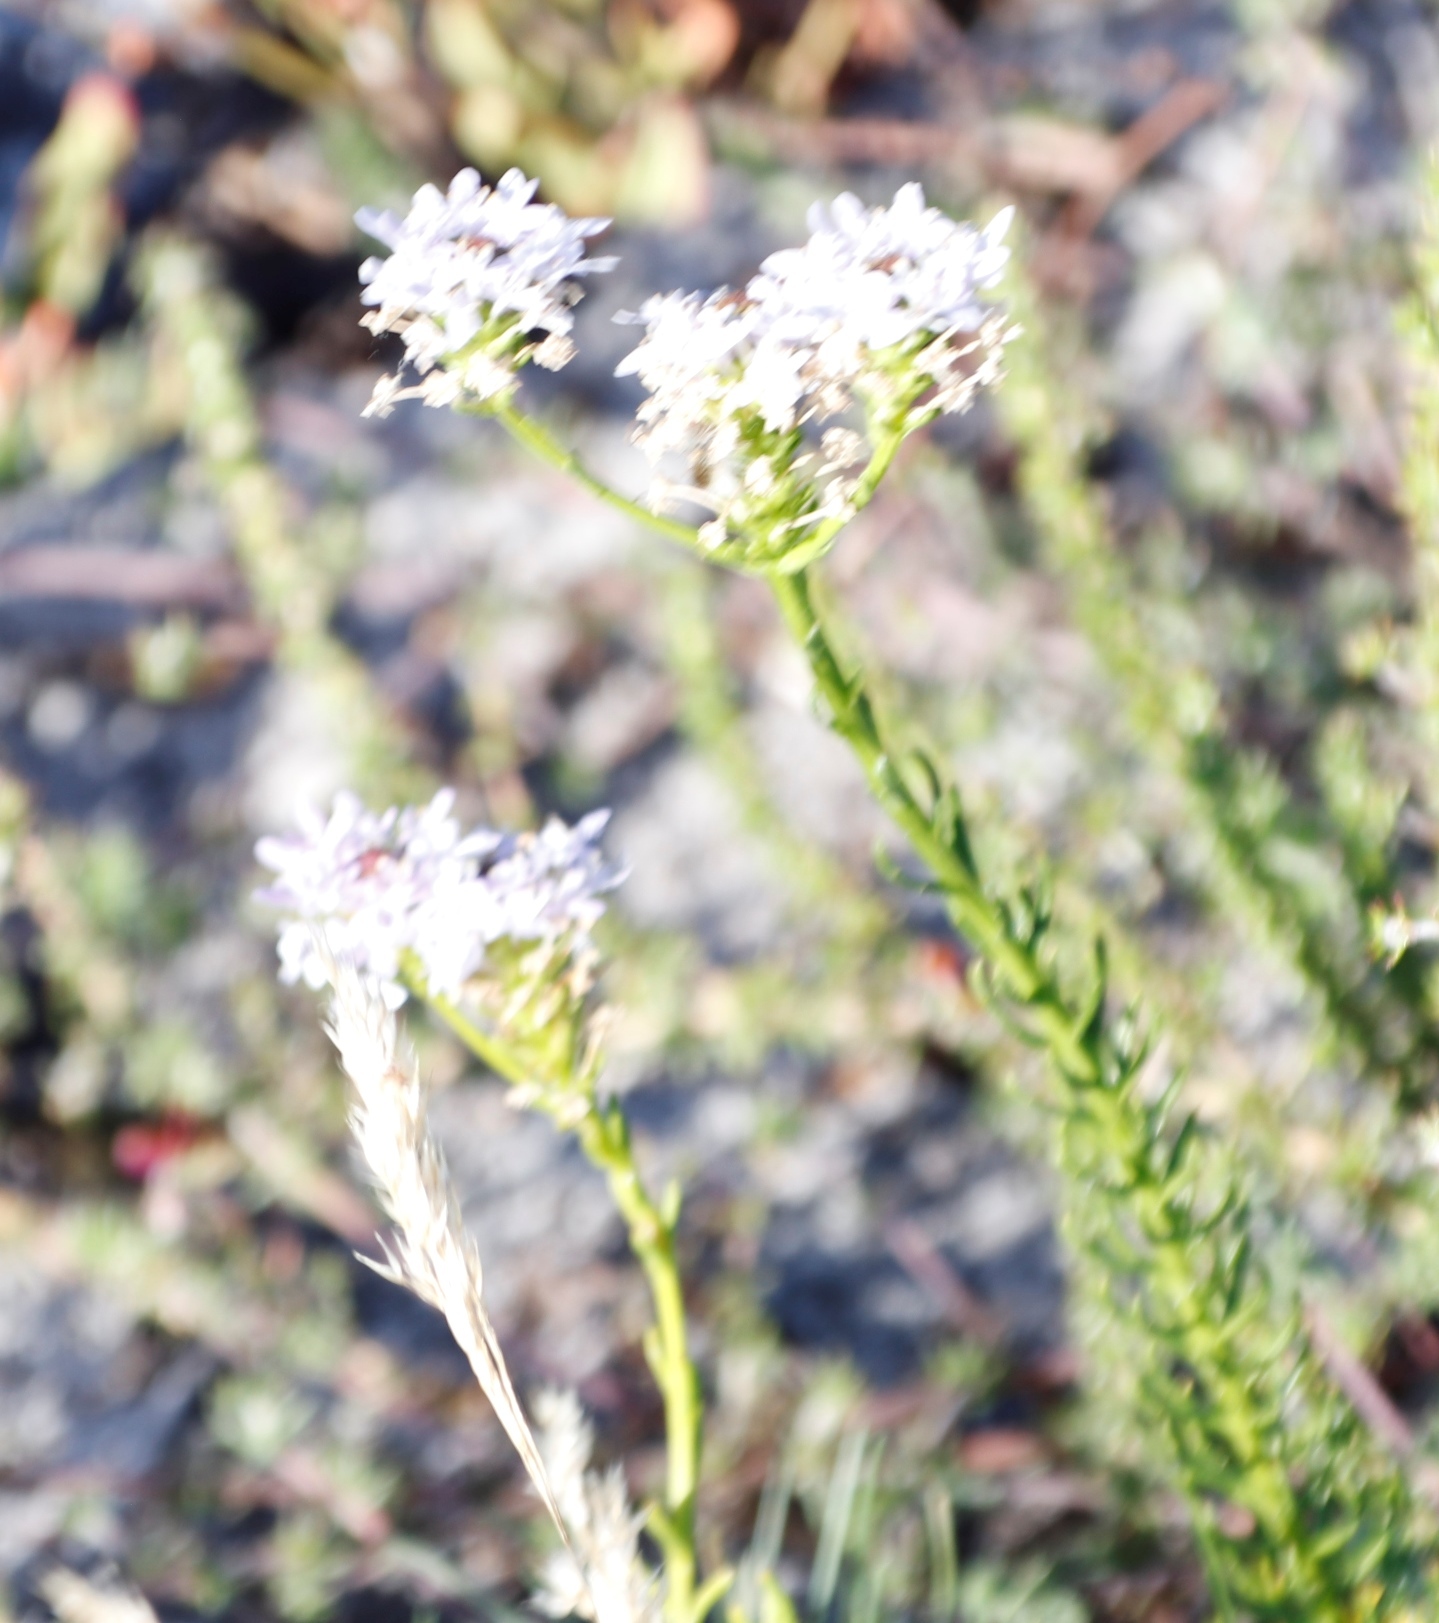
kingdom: Plantae
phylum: Tracheophyta
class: Magnoliopsida
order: Lamiales
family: Scrophulariaceae
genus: Pseudoselago
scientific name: Pseudoselago spuria
